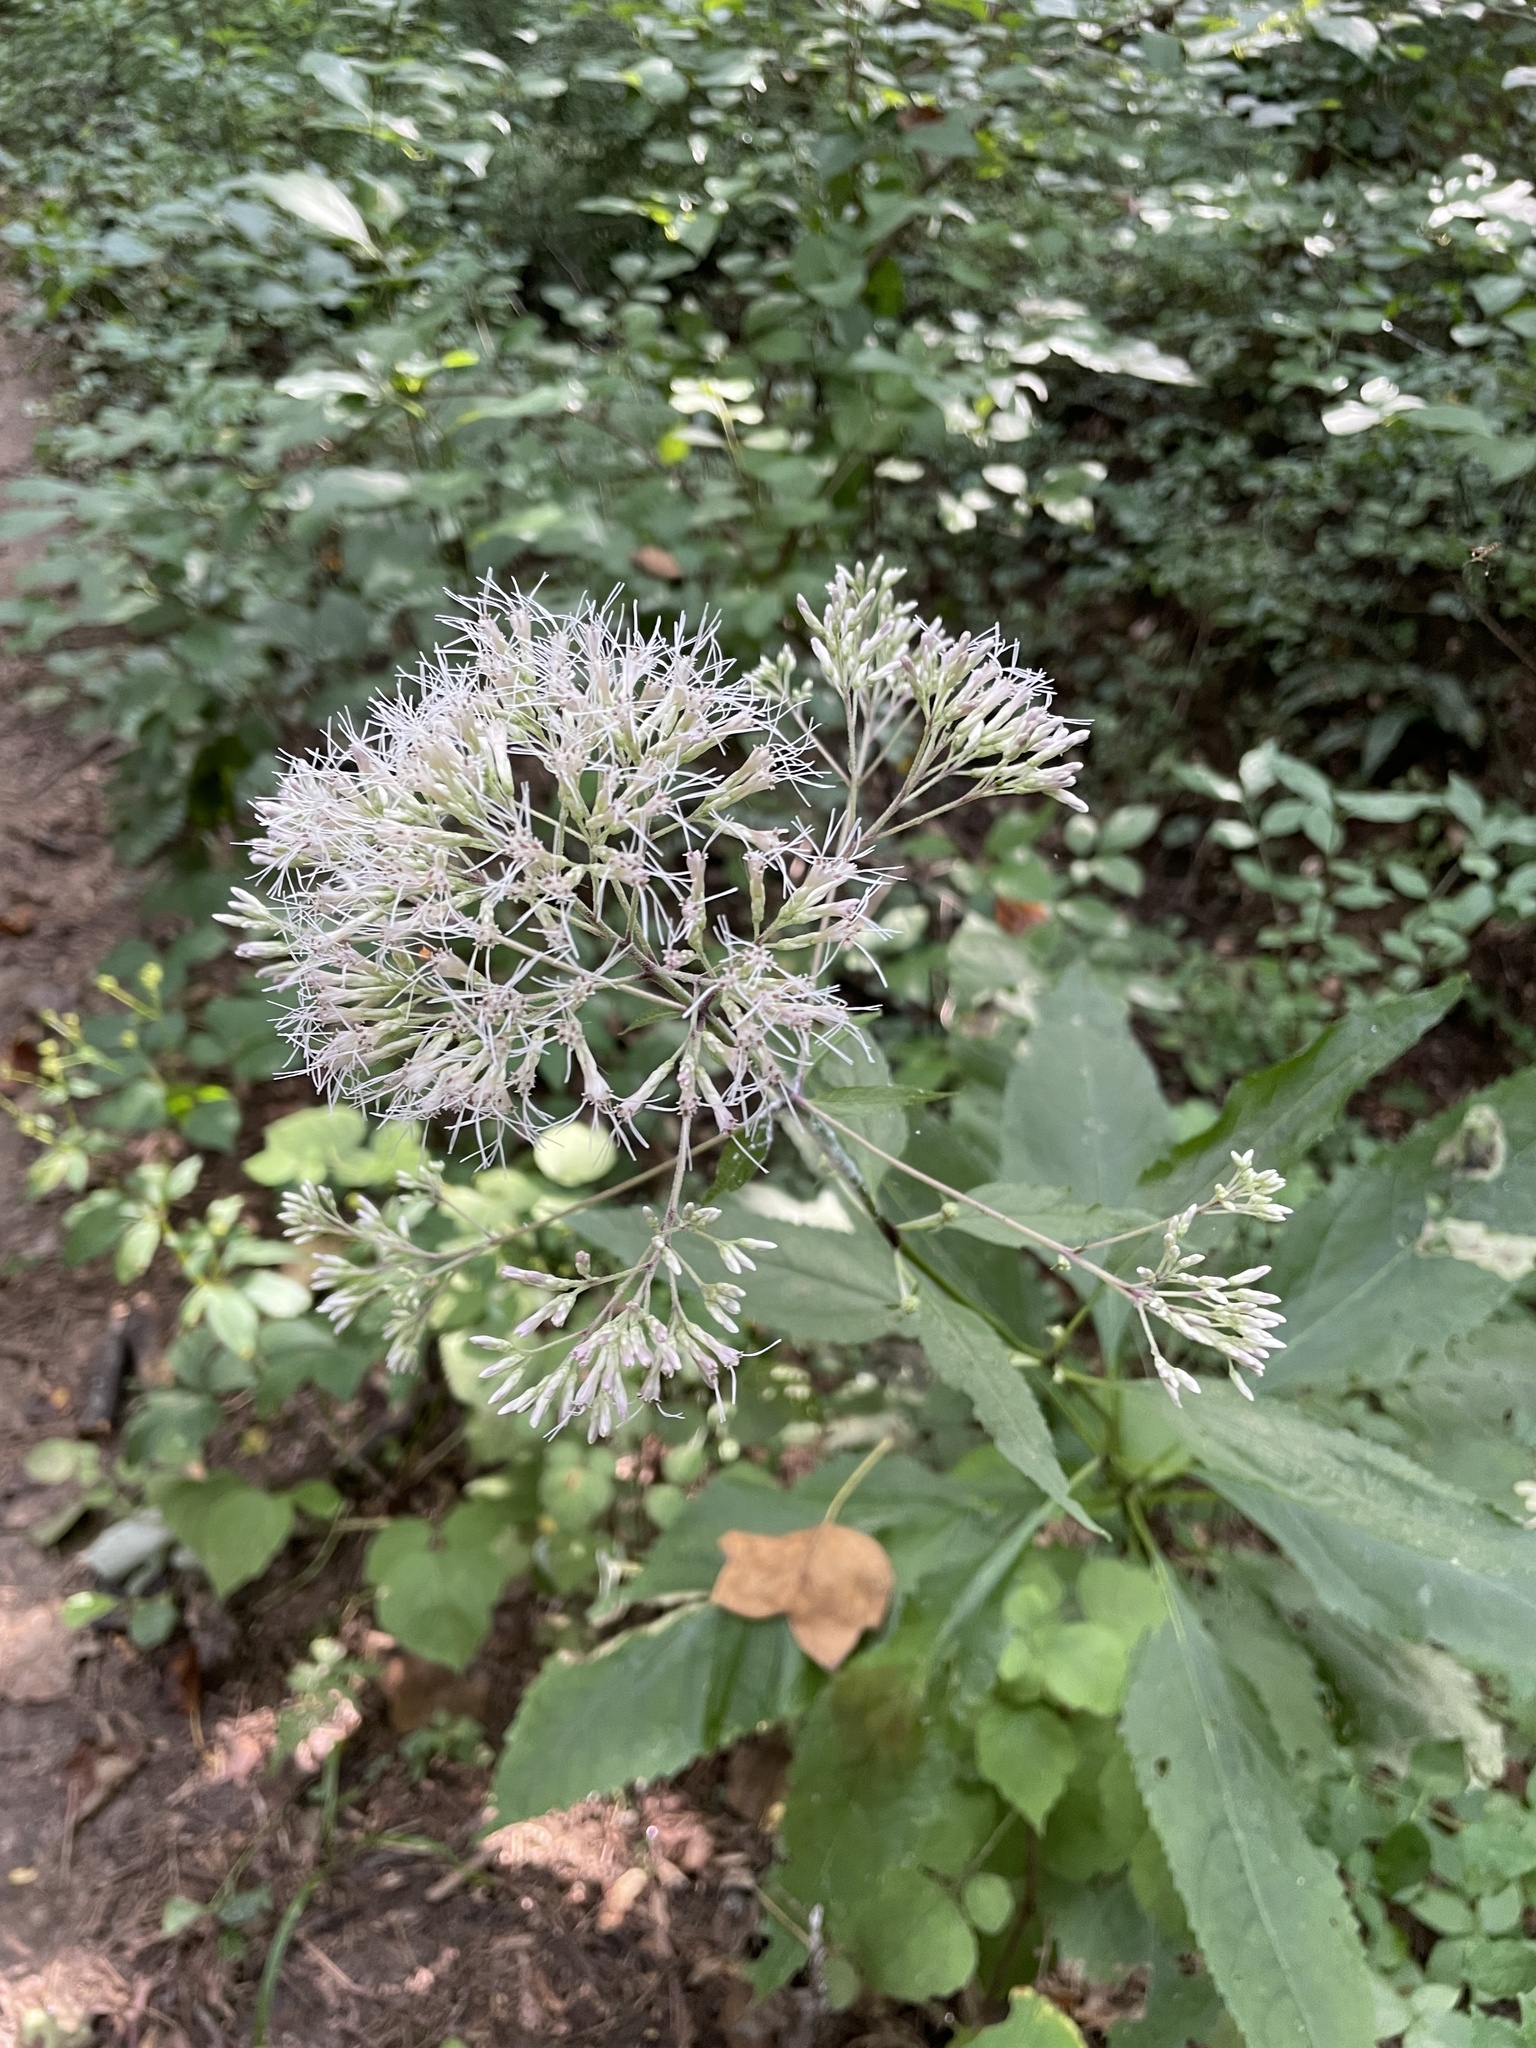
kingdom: Plantae
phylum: Tracheophyta
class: Magnoliopsida
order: Asterales
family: Asteraceae
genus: Eutrochium
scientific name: Eutrochium purpureum
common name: Gravelroot
